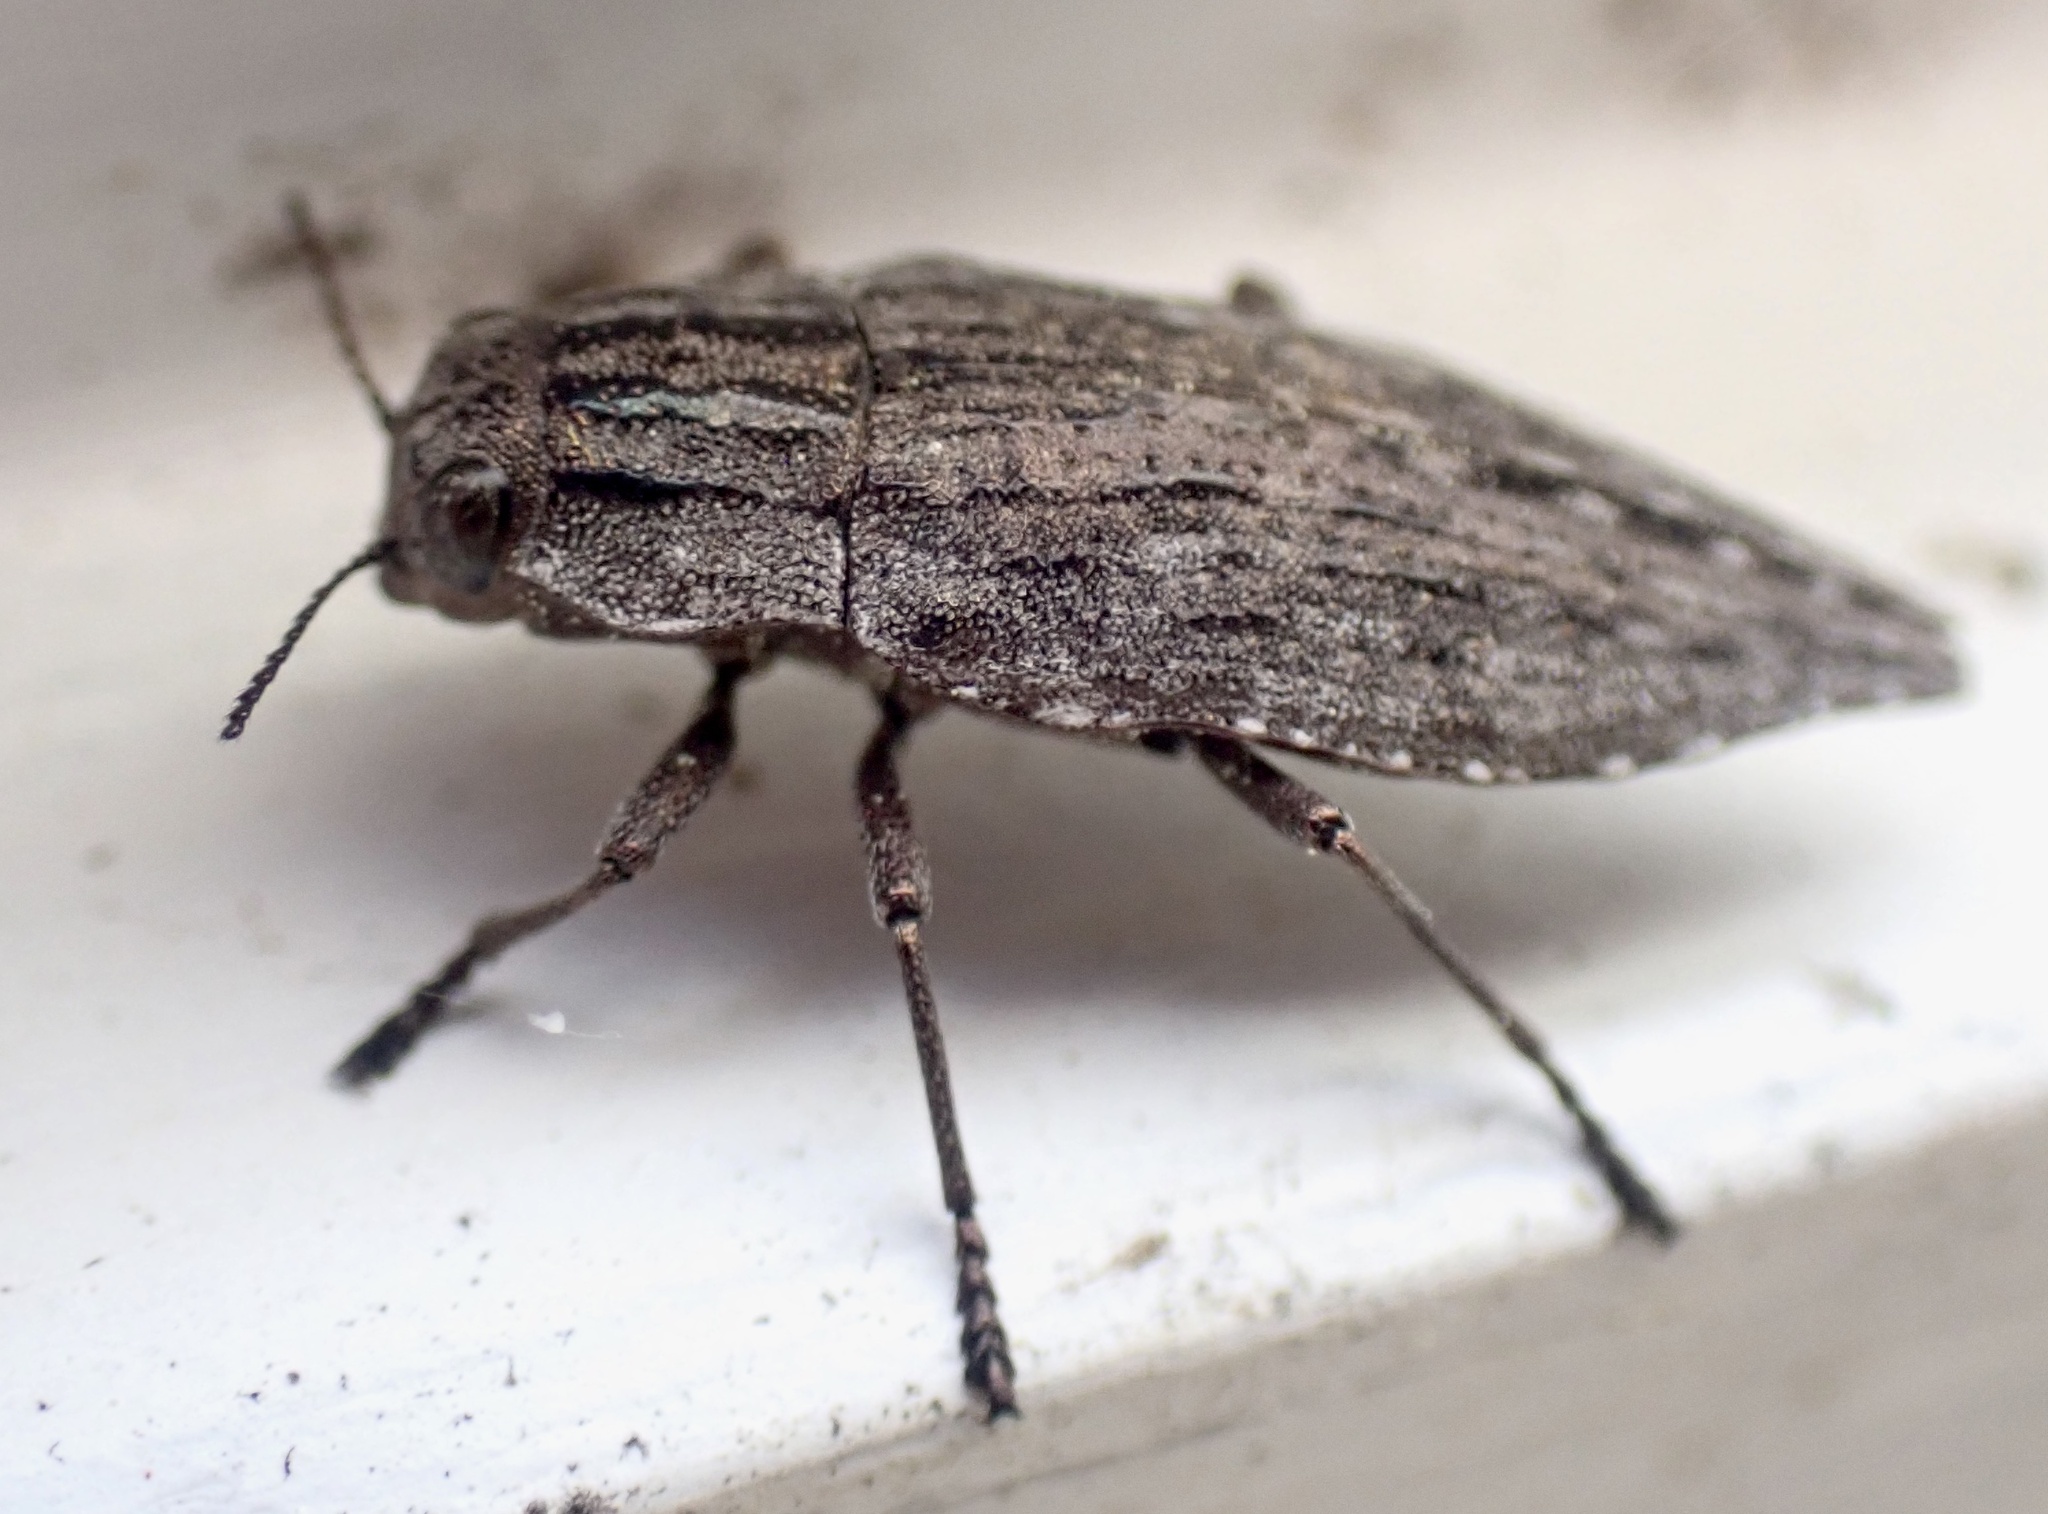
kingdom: Animalia
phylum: Arthropoda
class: Insecta
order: Coleoptera
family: Buprestidae
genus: Dicerca
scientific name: Dicerca punctulata
